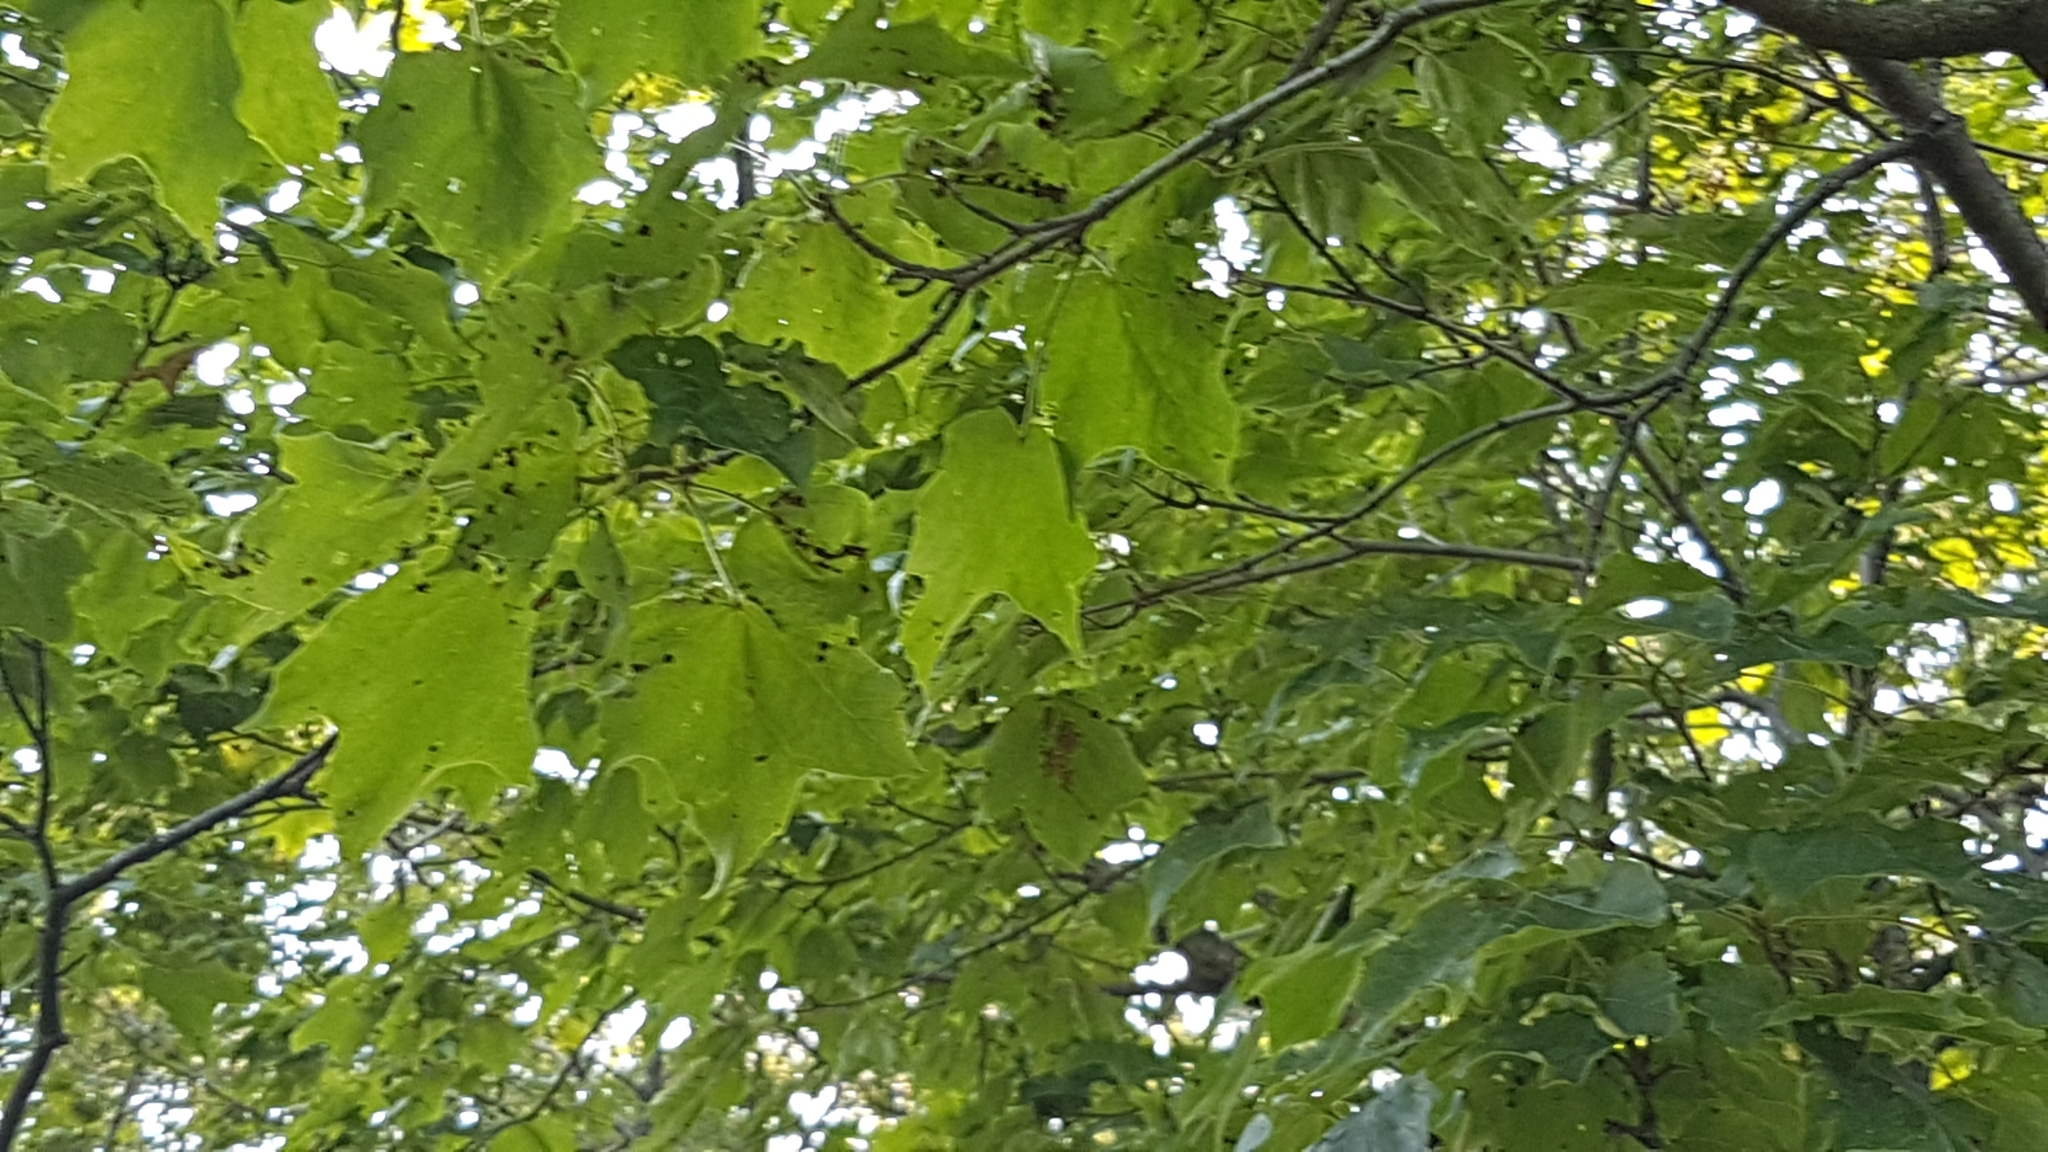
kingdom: Plantae
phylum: Tracheophyta
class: Magnoliopsida
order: Sapindales
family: Sapindaceae
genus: Acer
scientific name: Acer nigrum
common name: Black maple
